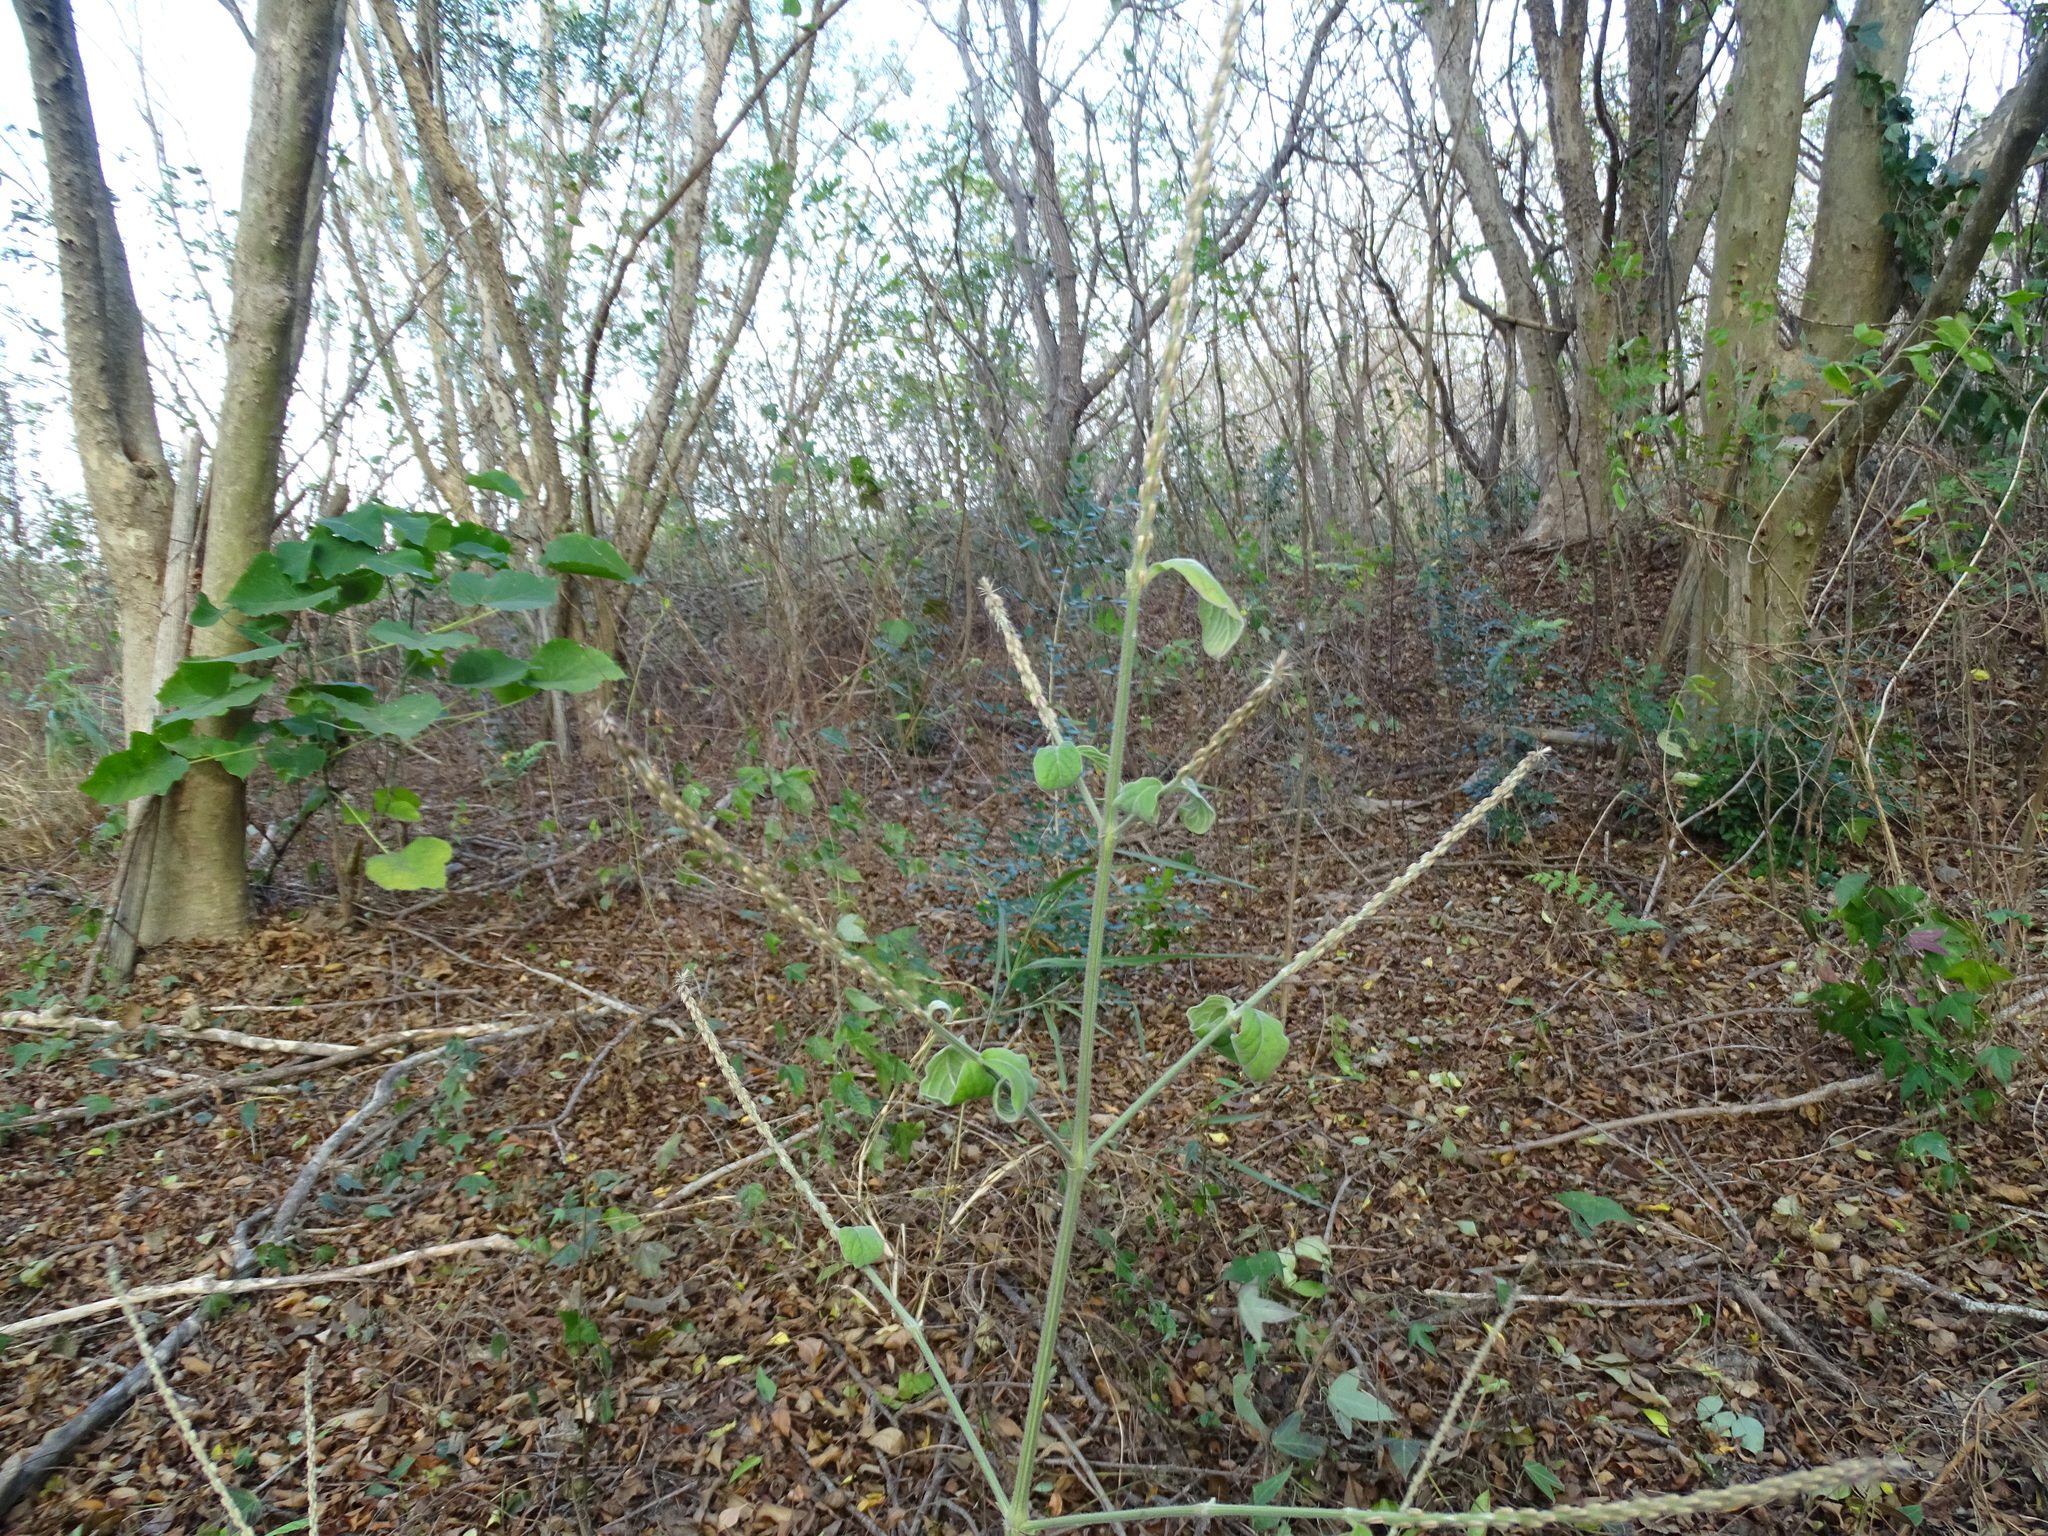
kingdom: Plantae
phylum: Tracheophyta
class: Magnoliopsida
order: Caryophyllales
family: Amaranthaceae
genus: Achyranthes
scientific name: Achyranthes aspera
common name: Devil's horsewhip
